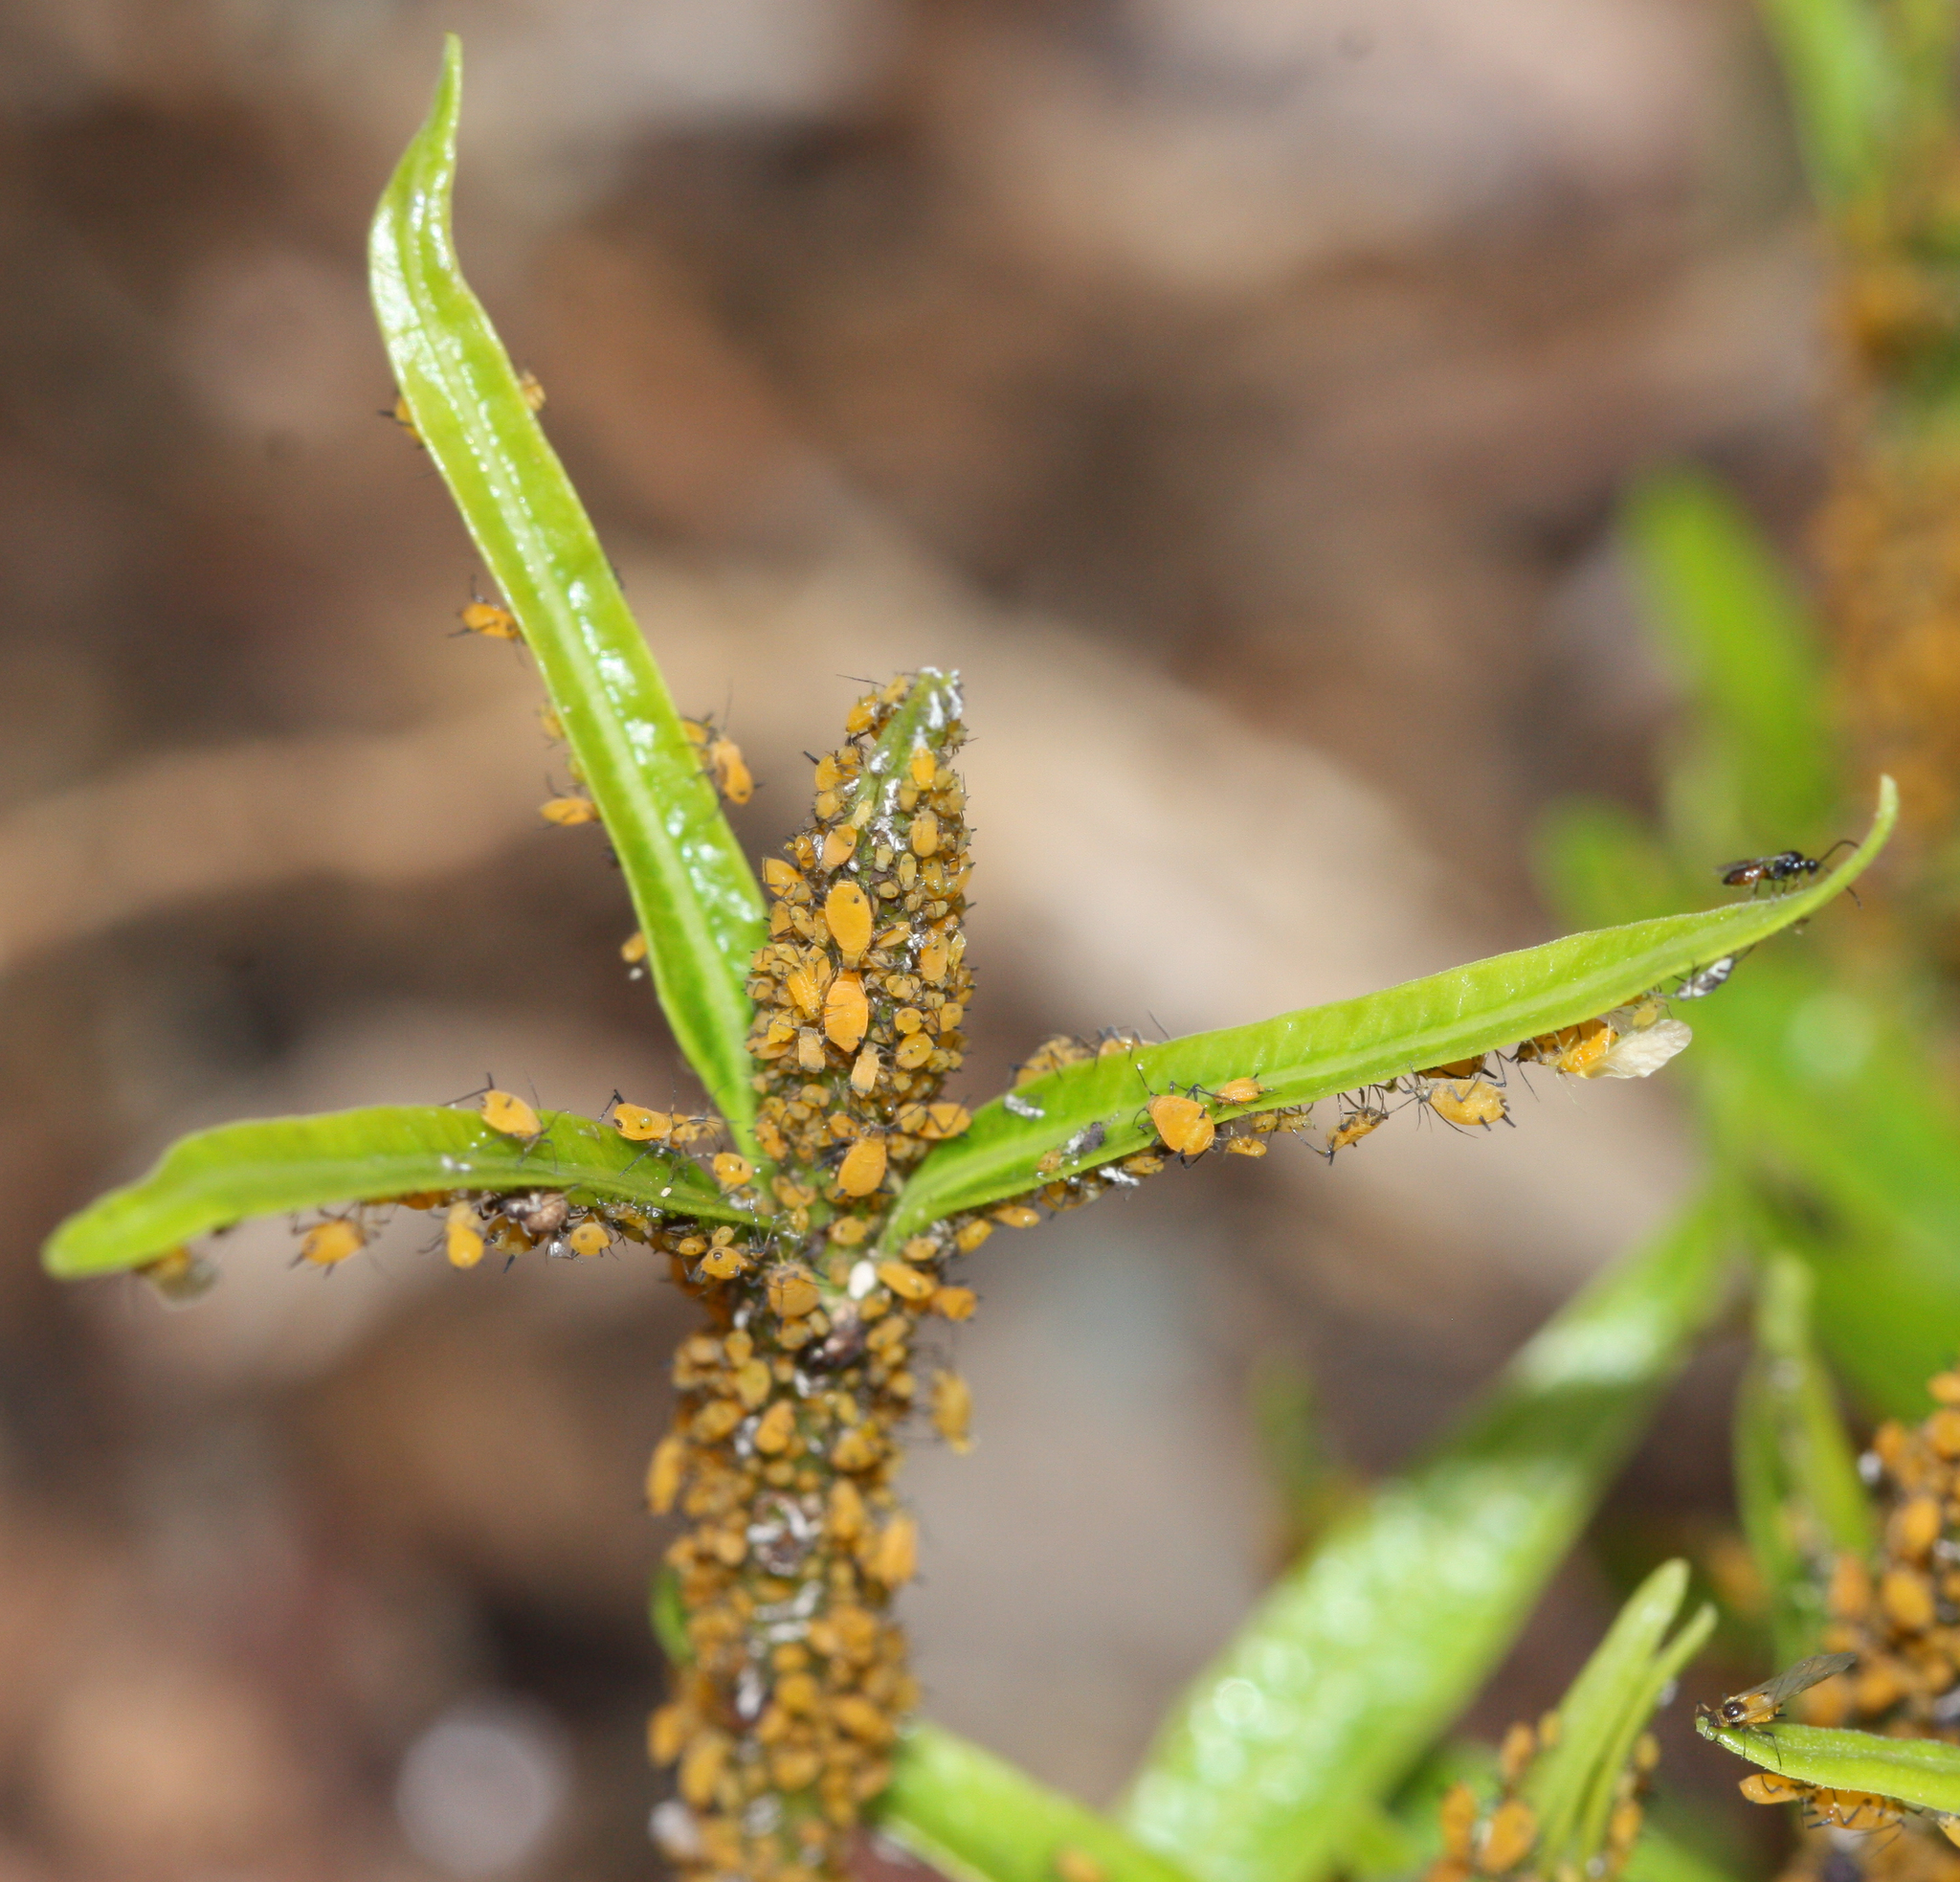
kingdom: Animalia
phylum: Arthropoda
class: Insecta
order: Hemiptera
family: Aphididae
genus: Aphis
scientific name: Aphis nerii
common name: Oleander aphid
